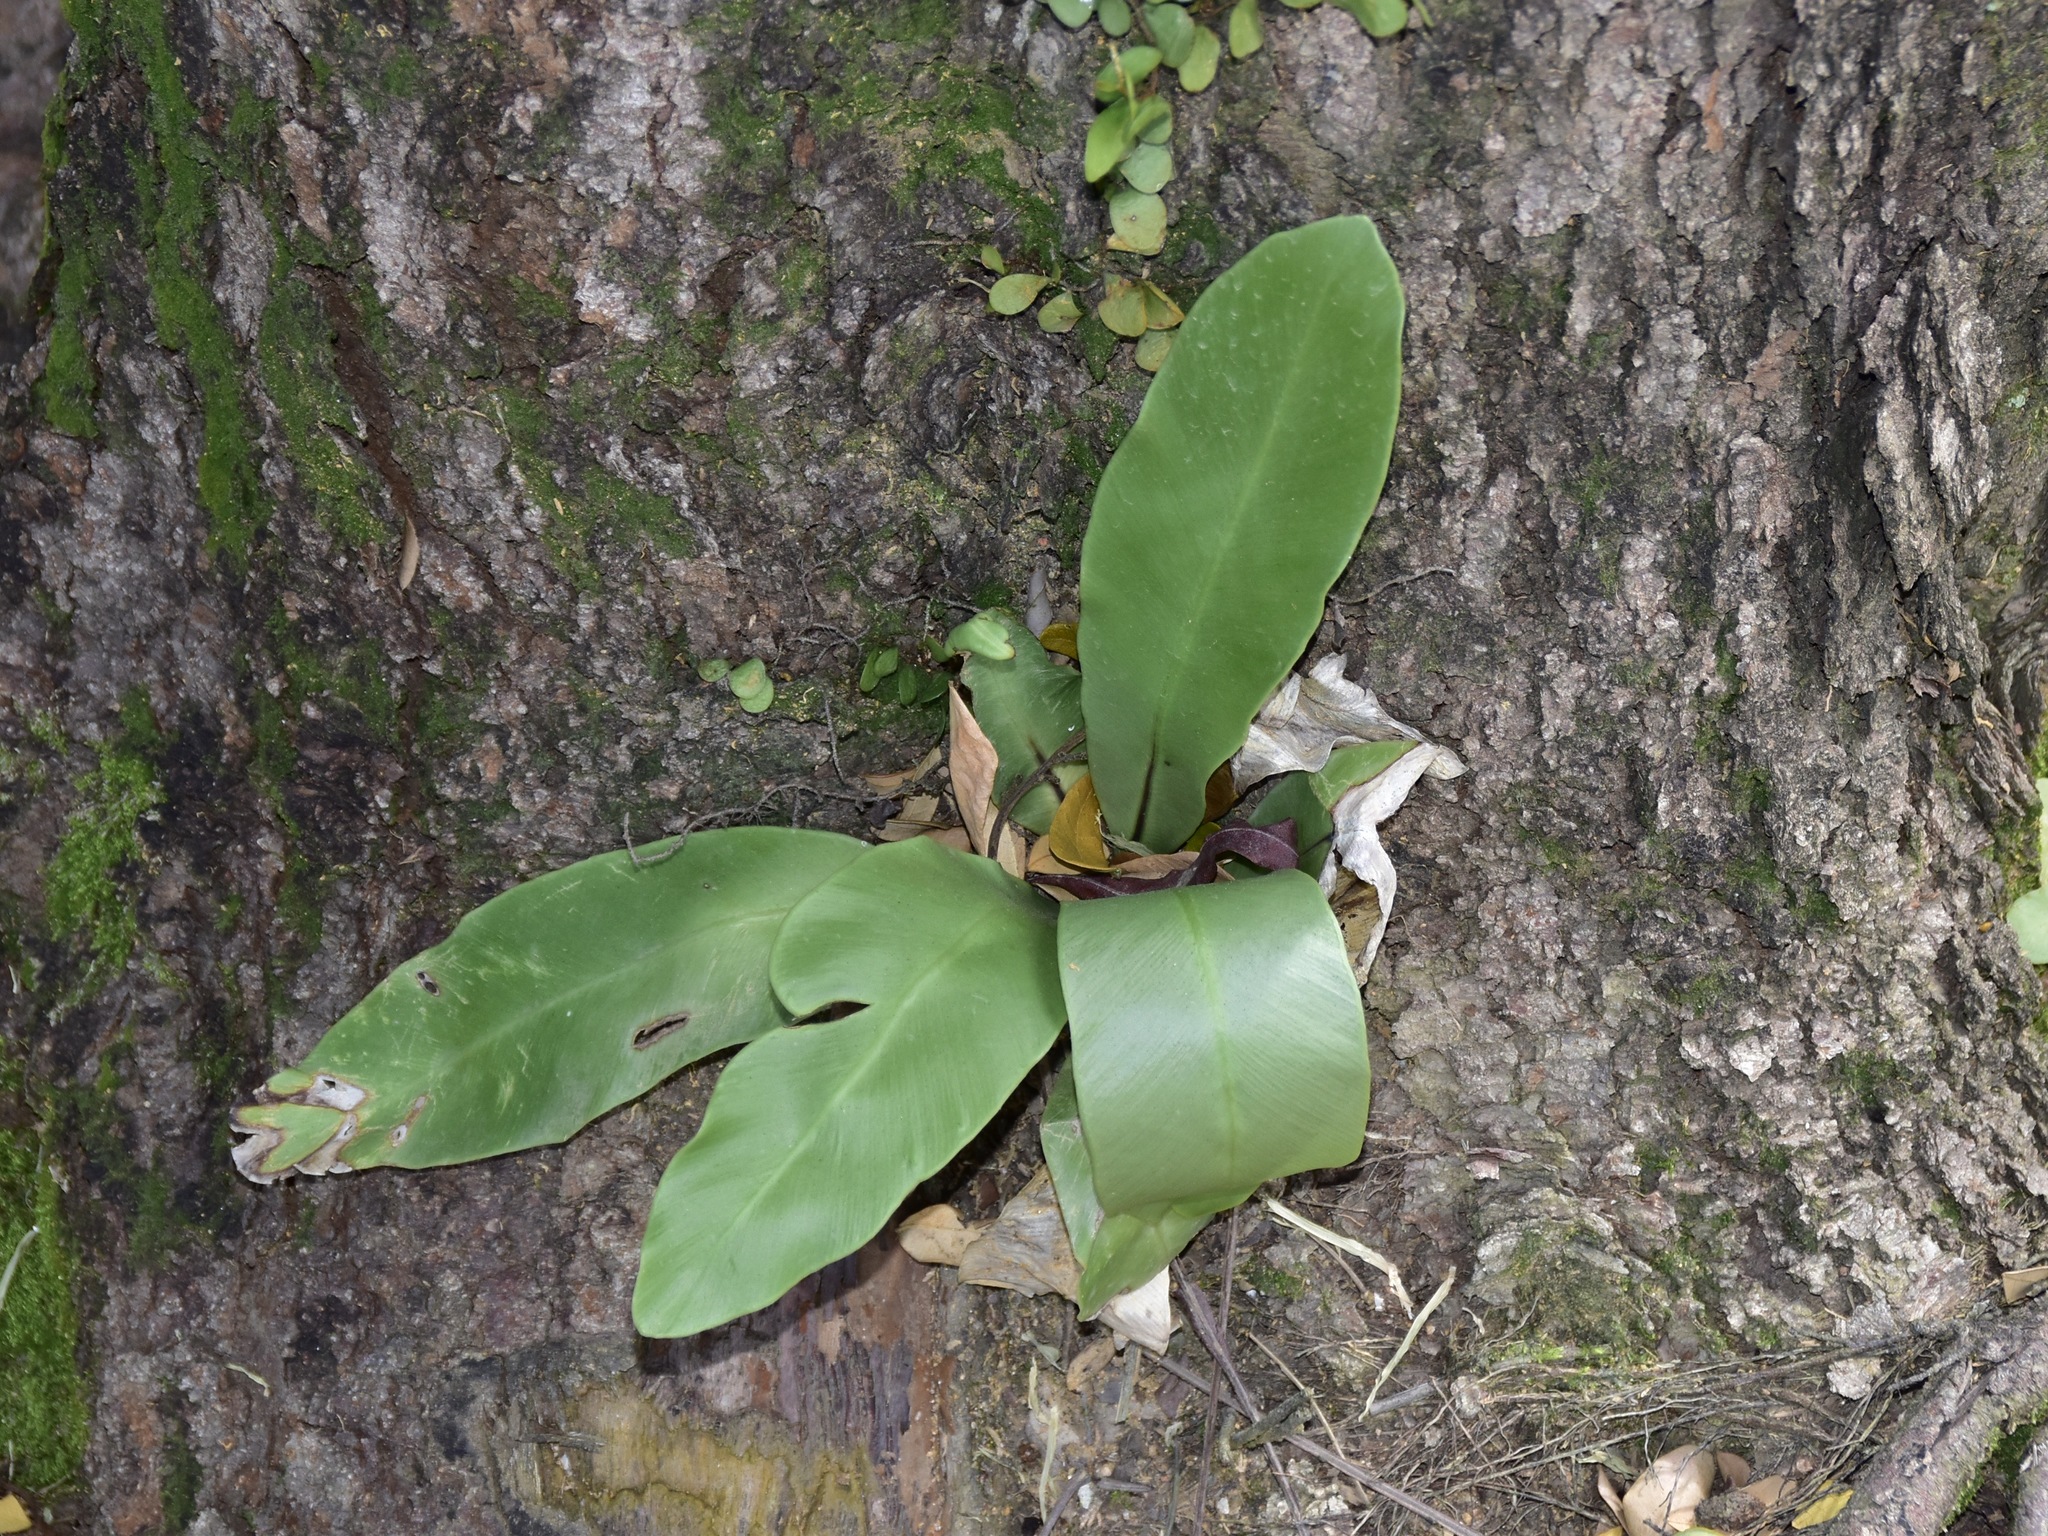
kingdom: Plantae
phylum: Tracheophyta
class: Polypodiopsida
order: Polypodiales
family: Aspleniaceae
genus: Asplenium
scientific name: Asplenium nidus
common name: Bird's-nest fern
